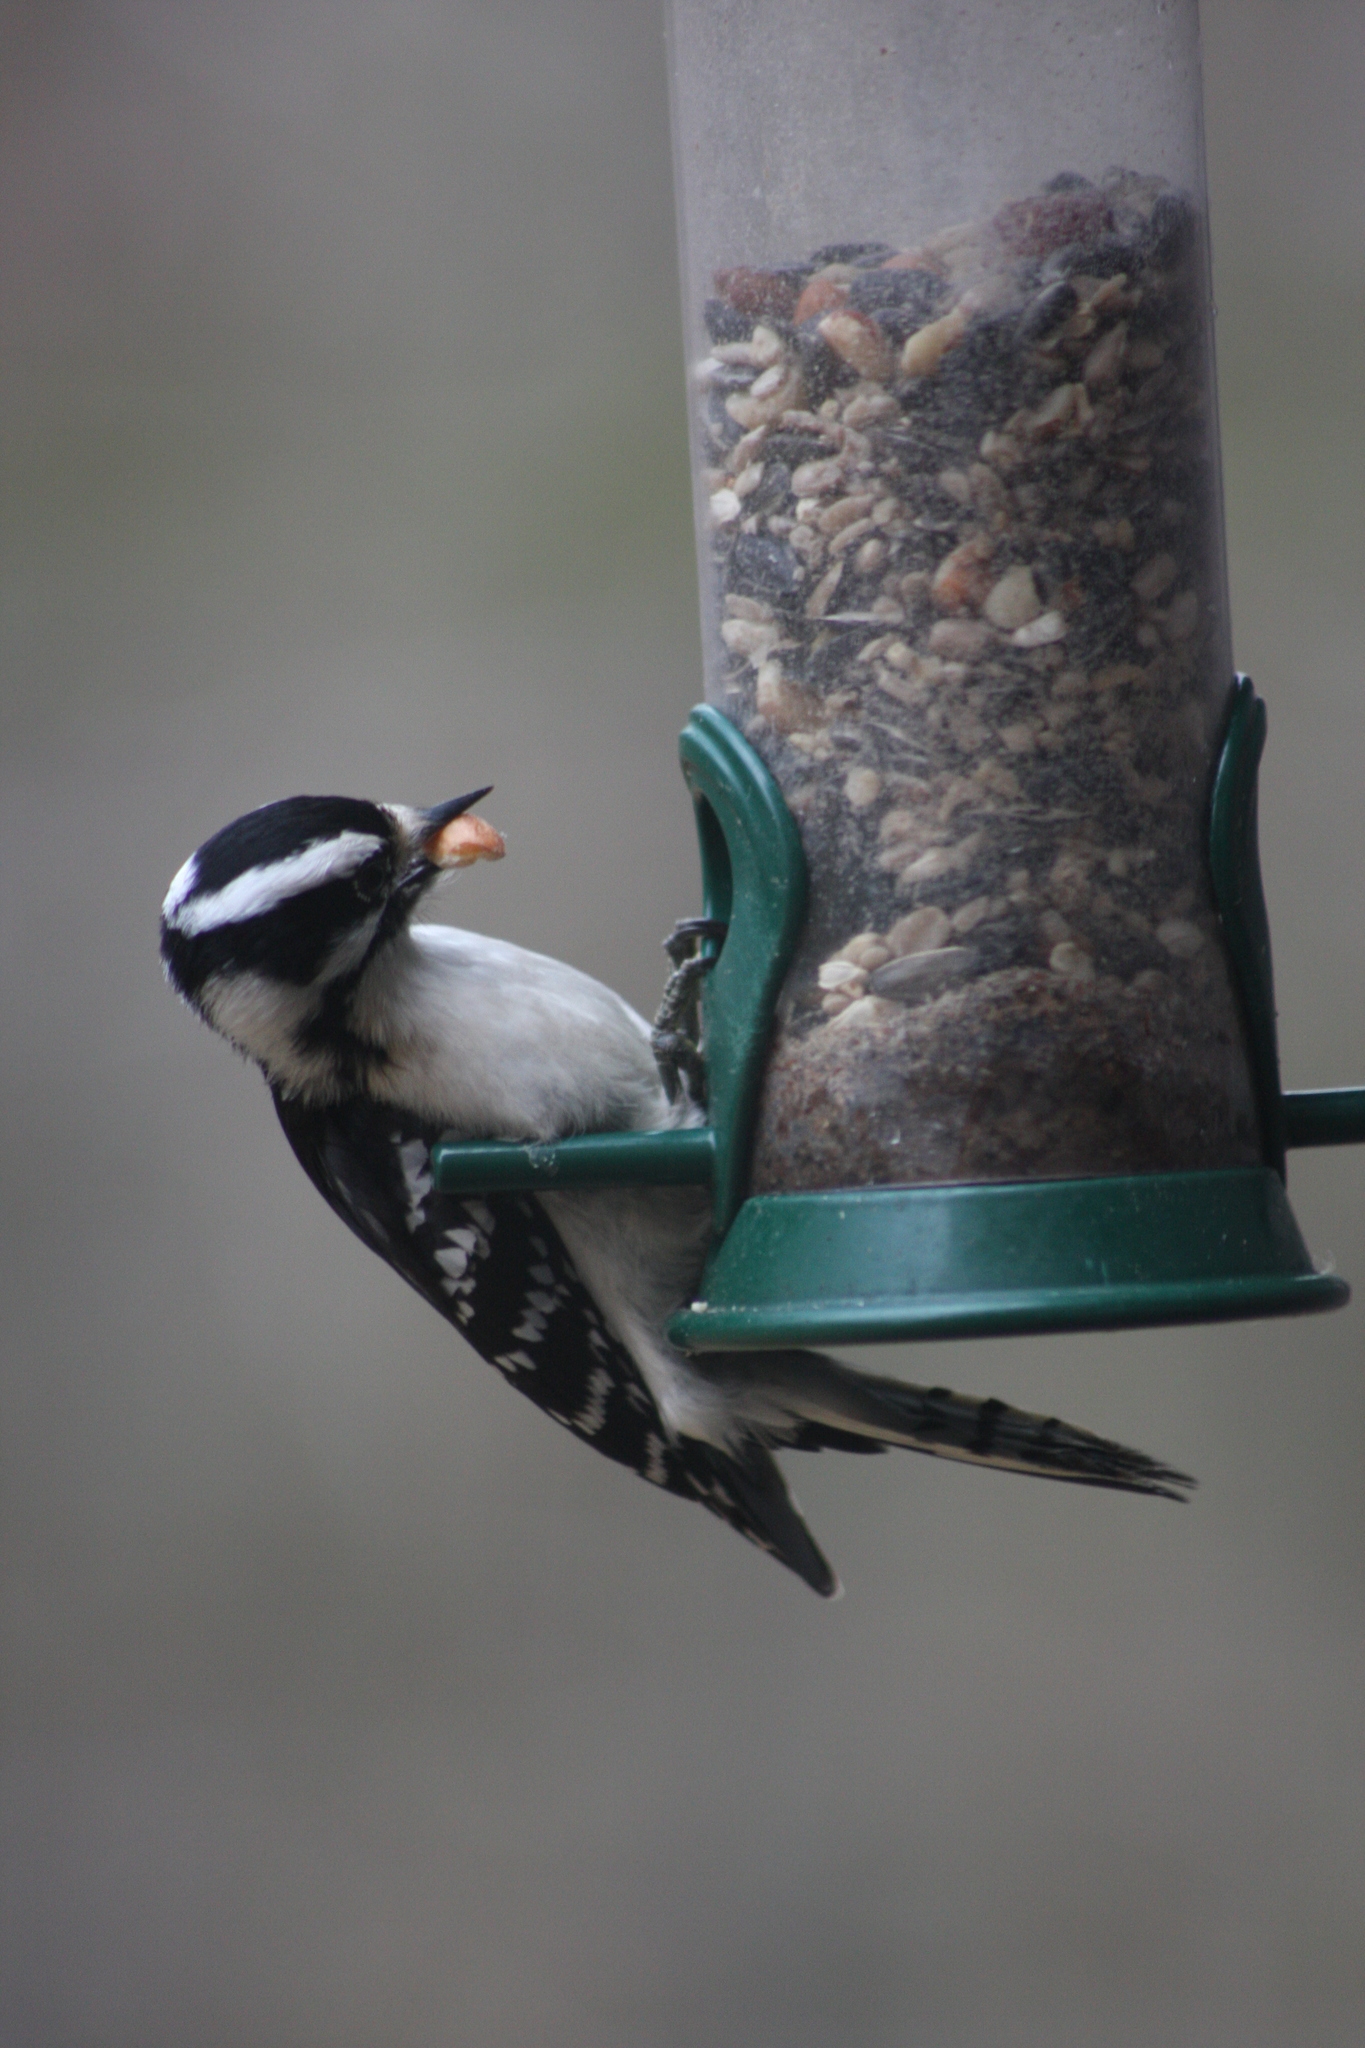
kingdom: Animalia
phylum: Chordata
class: Aves
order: Piciformes
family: Picidae
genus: Dryobates
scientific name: Dryobates pubescens
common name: Downy woodpecker
